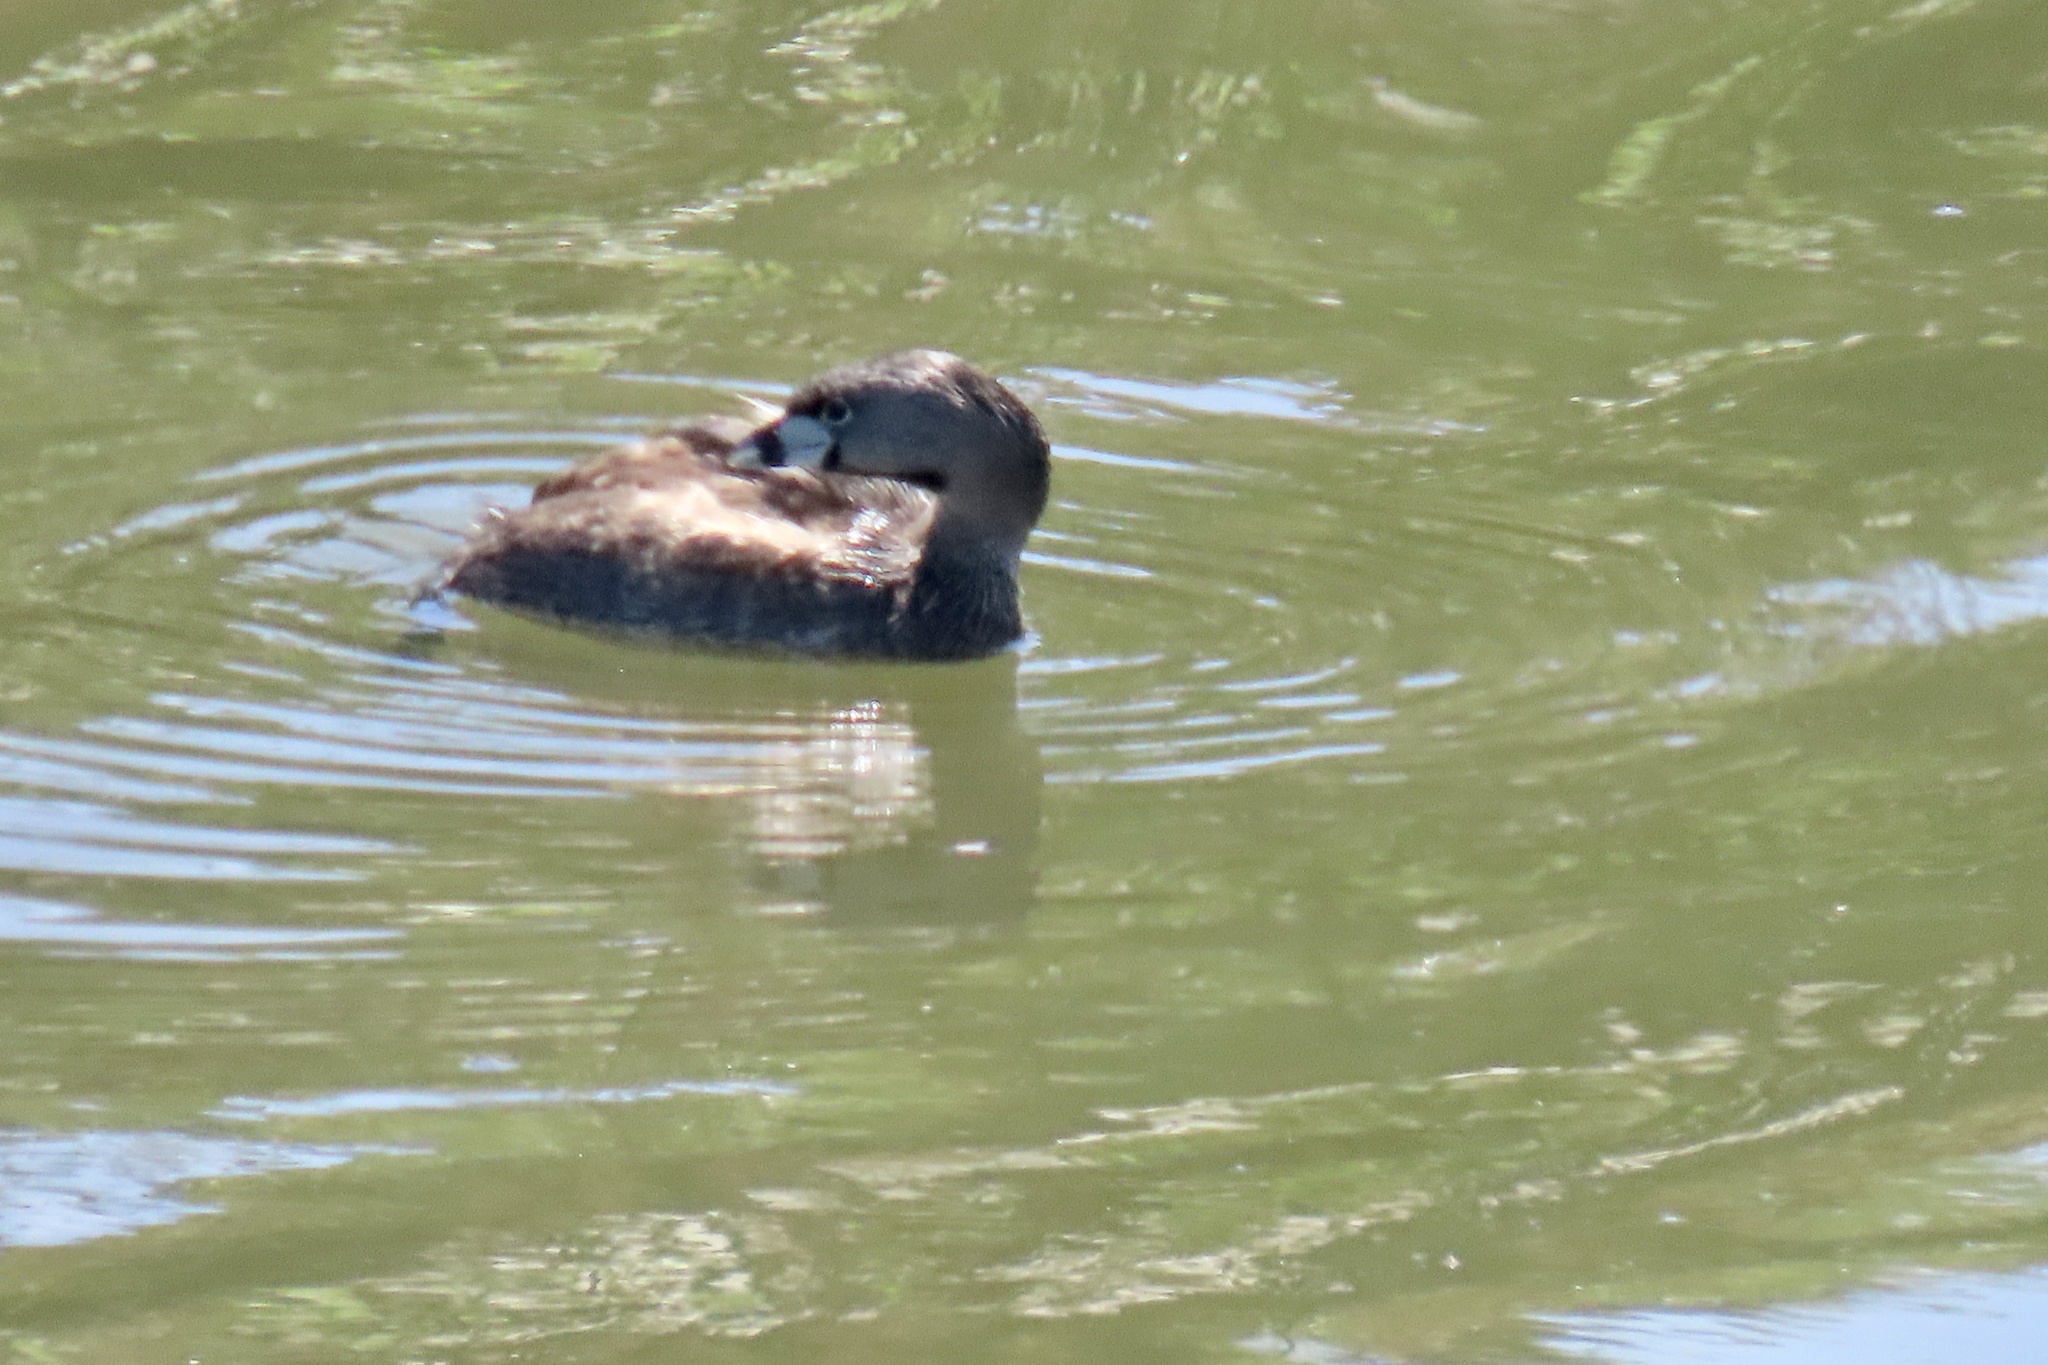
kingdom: Animalia
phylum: Chordata
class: Aves
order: Podicipediformes
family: Podicipedidae
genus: Podilymbus
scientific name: Podilymbus podiceps
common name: Pied-billed grebe
